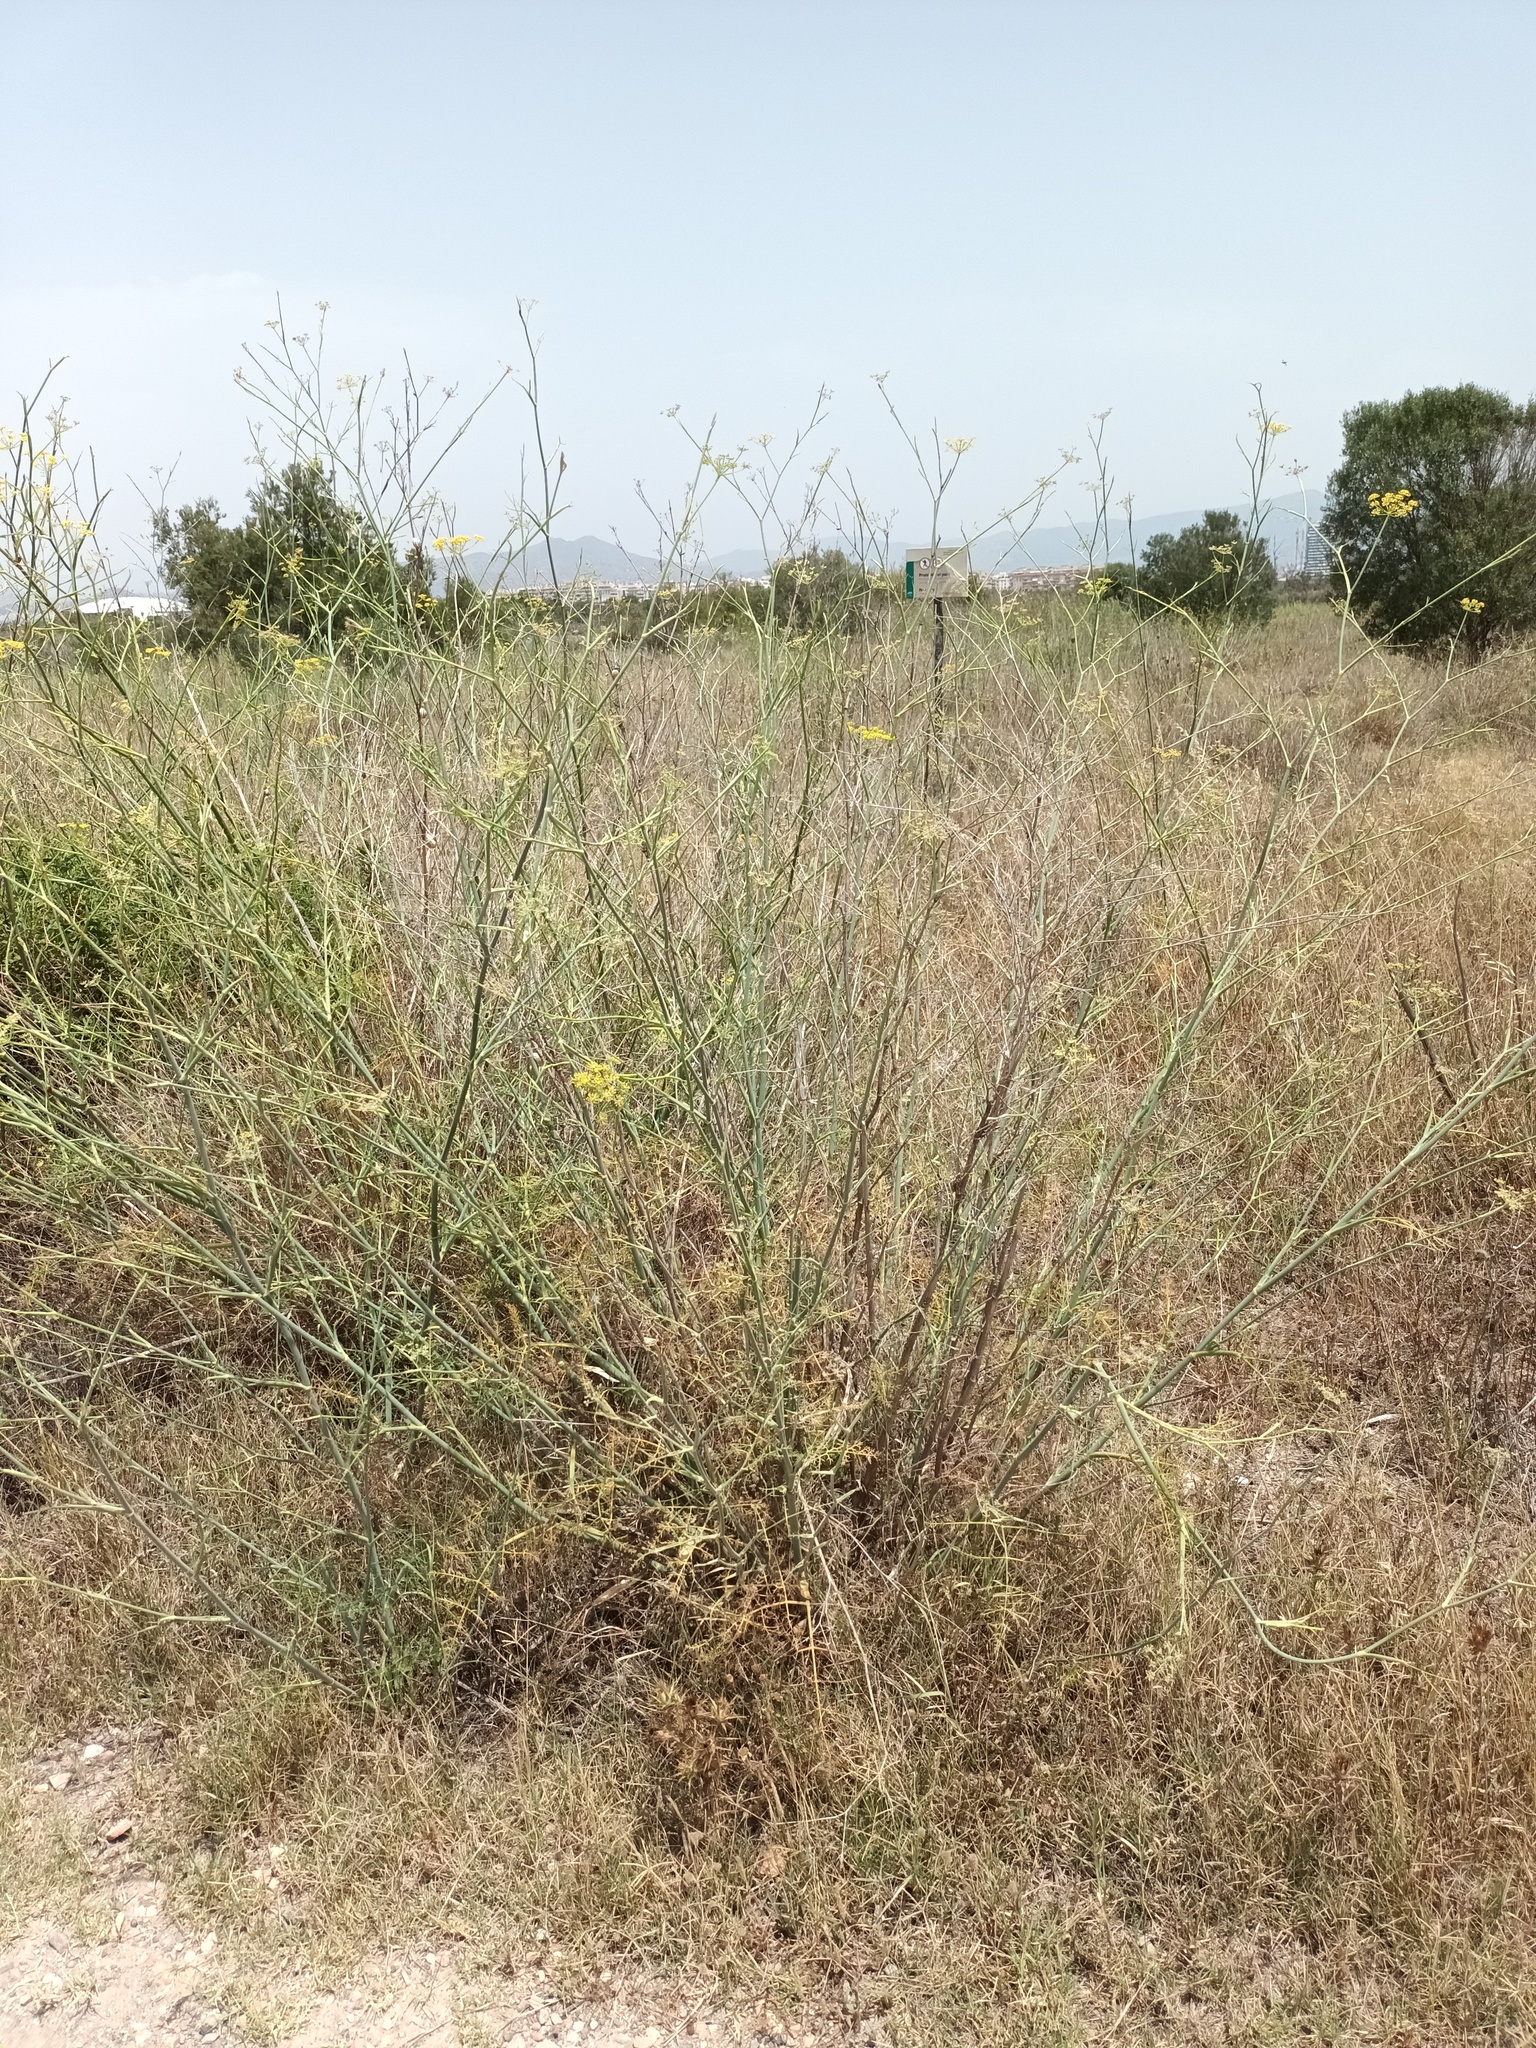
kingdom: Plantae
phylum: Tracheophyta
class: Magnoliopsida
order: Apiales
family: Apiaceae
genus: Foeniculum
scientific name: Foeniculum vulgare
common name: Fennel
